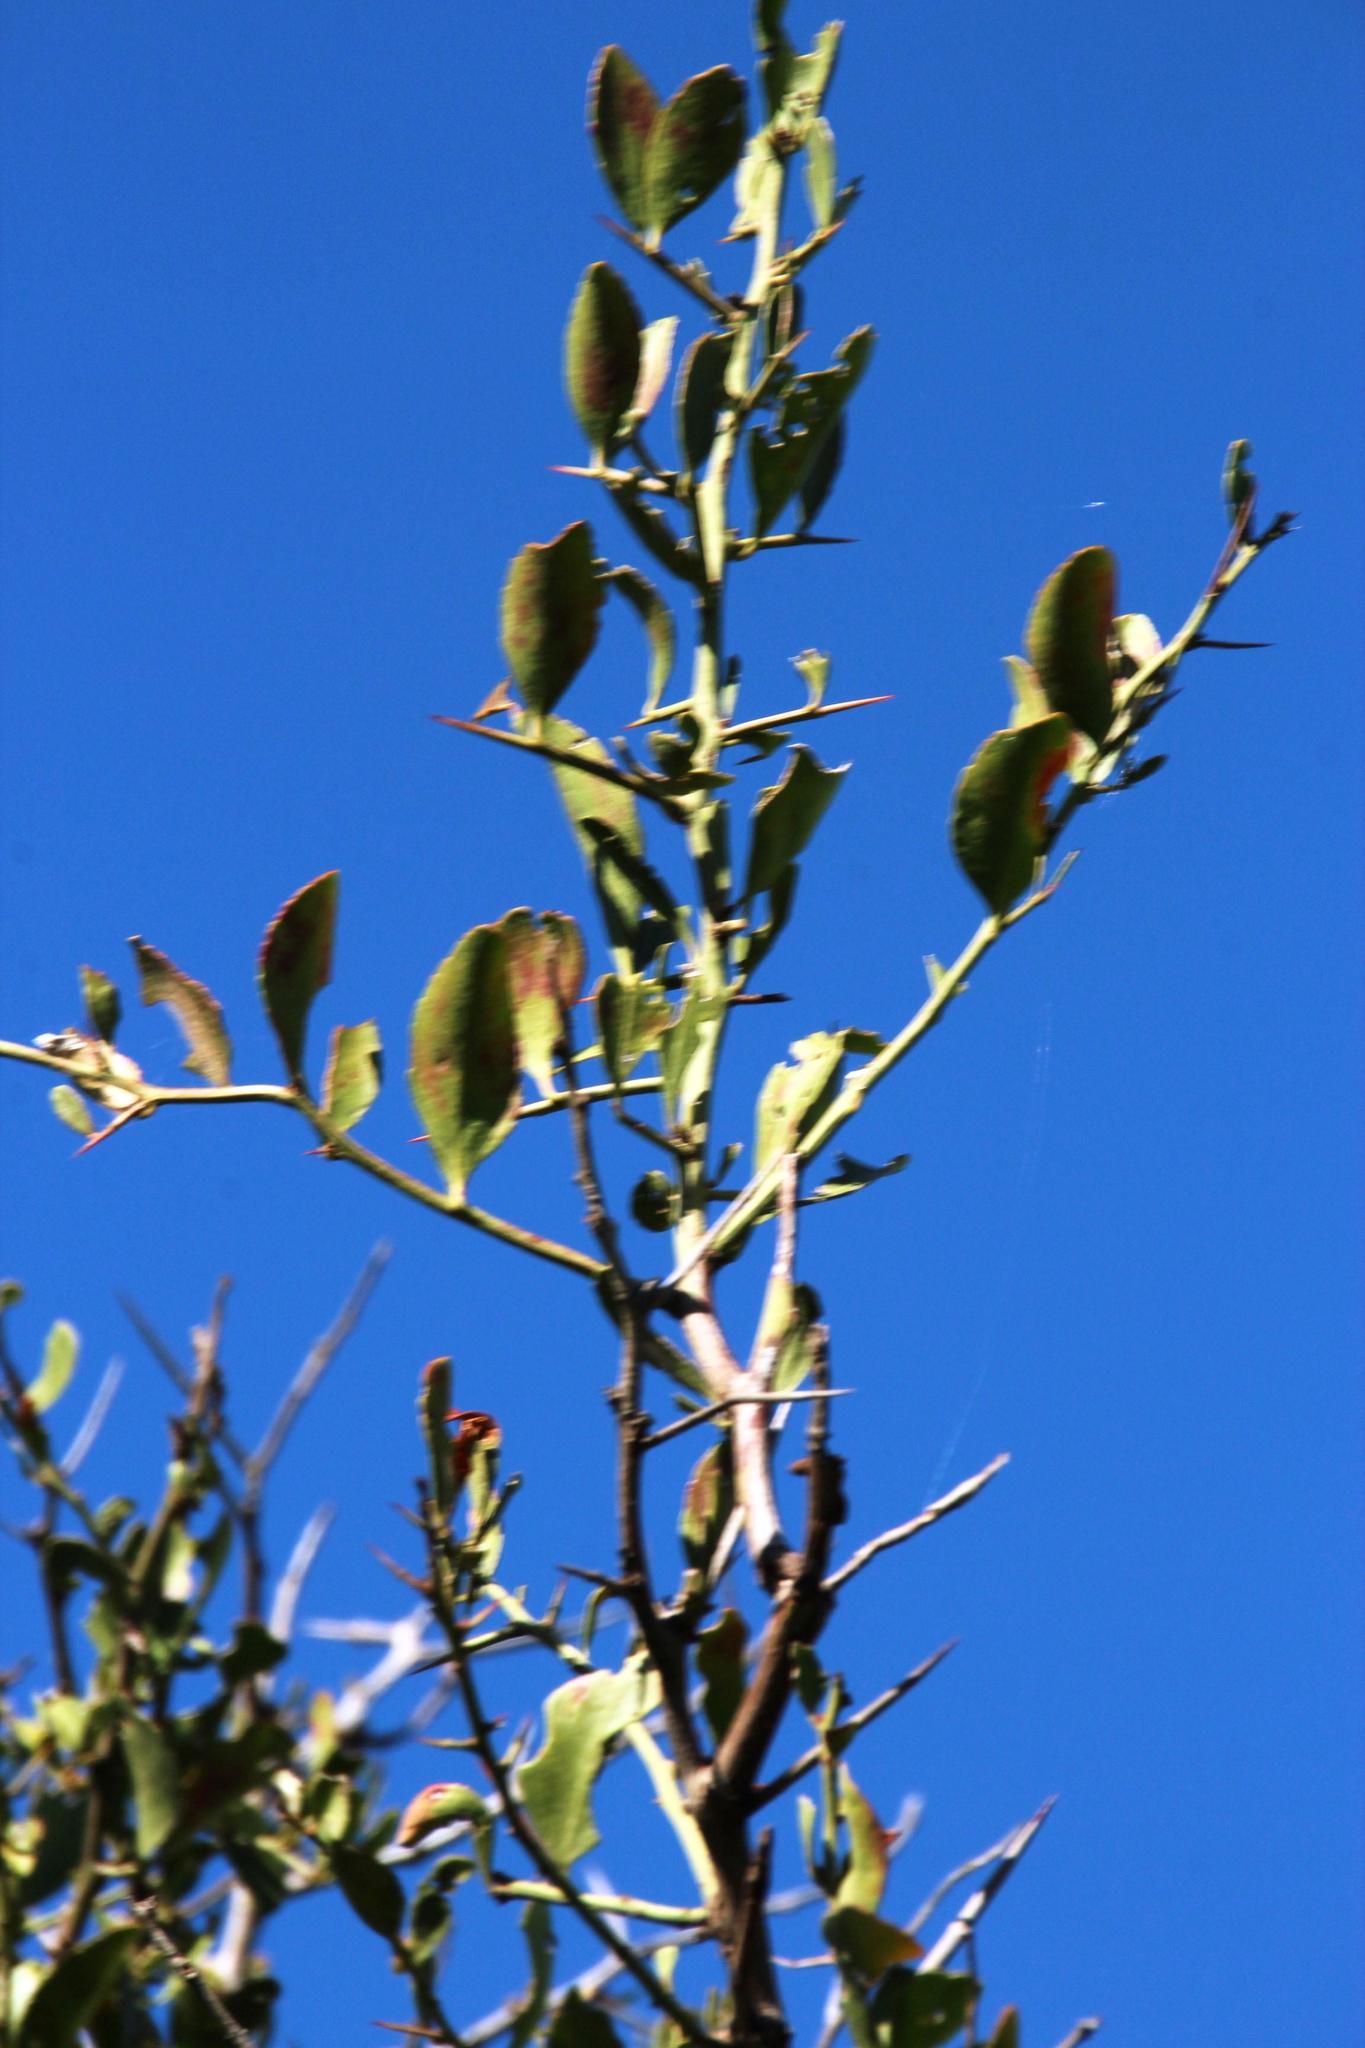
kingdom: Plantae
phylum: Tracheophyta
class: Magnoliopsida
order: Celastrales
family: Celastraceae
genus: Gymnosporia
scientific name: Gymnosporia buxifolia
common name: Common spike-thorn
